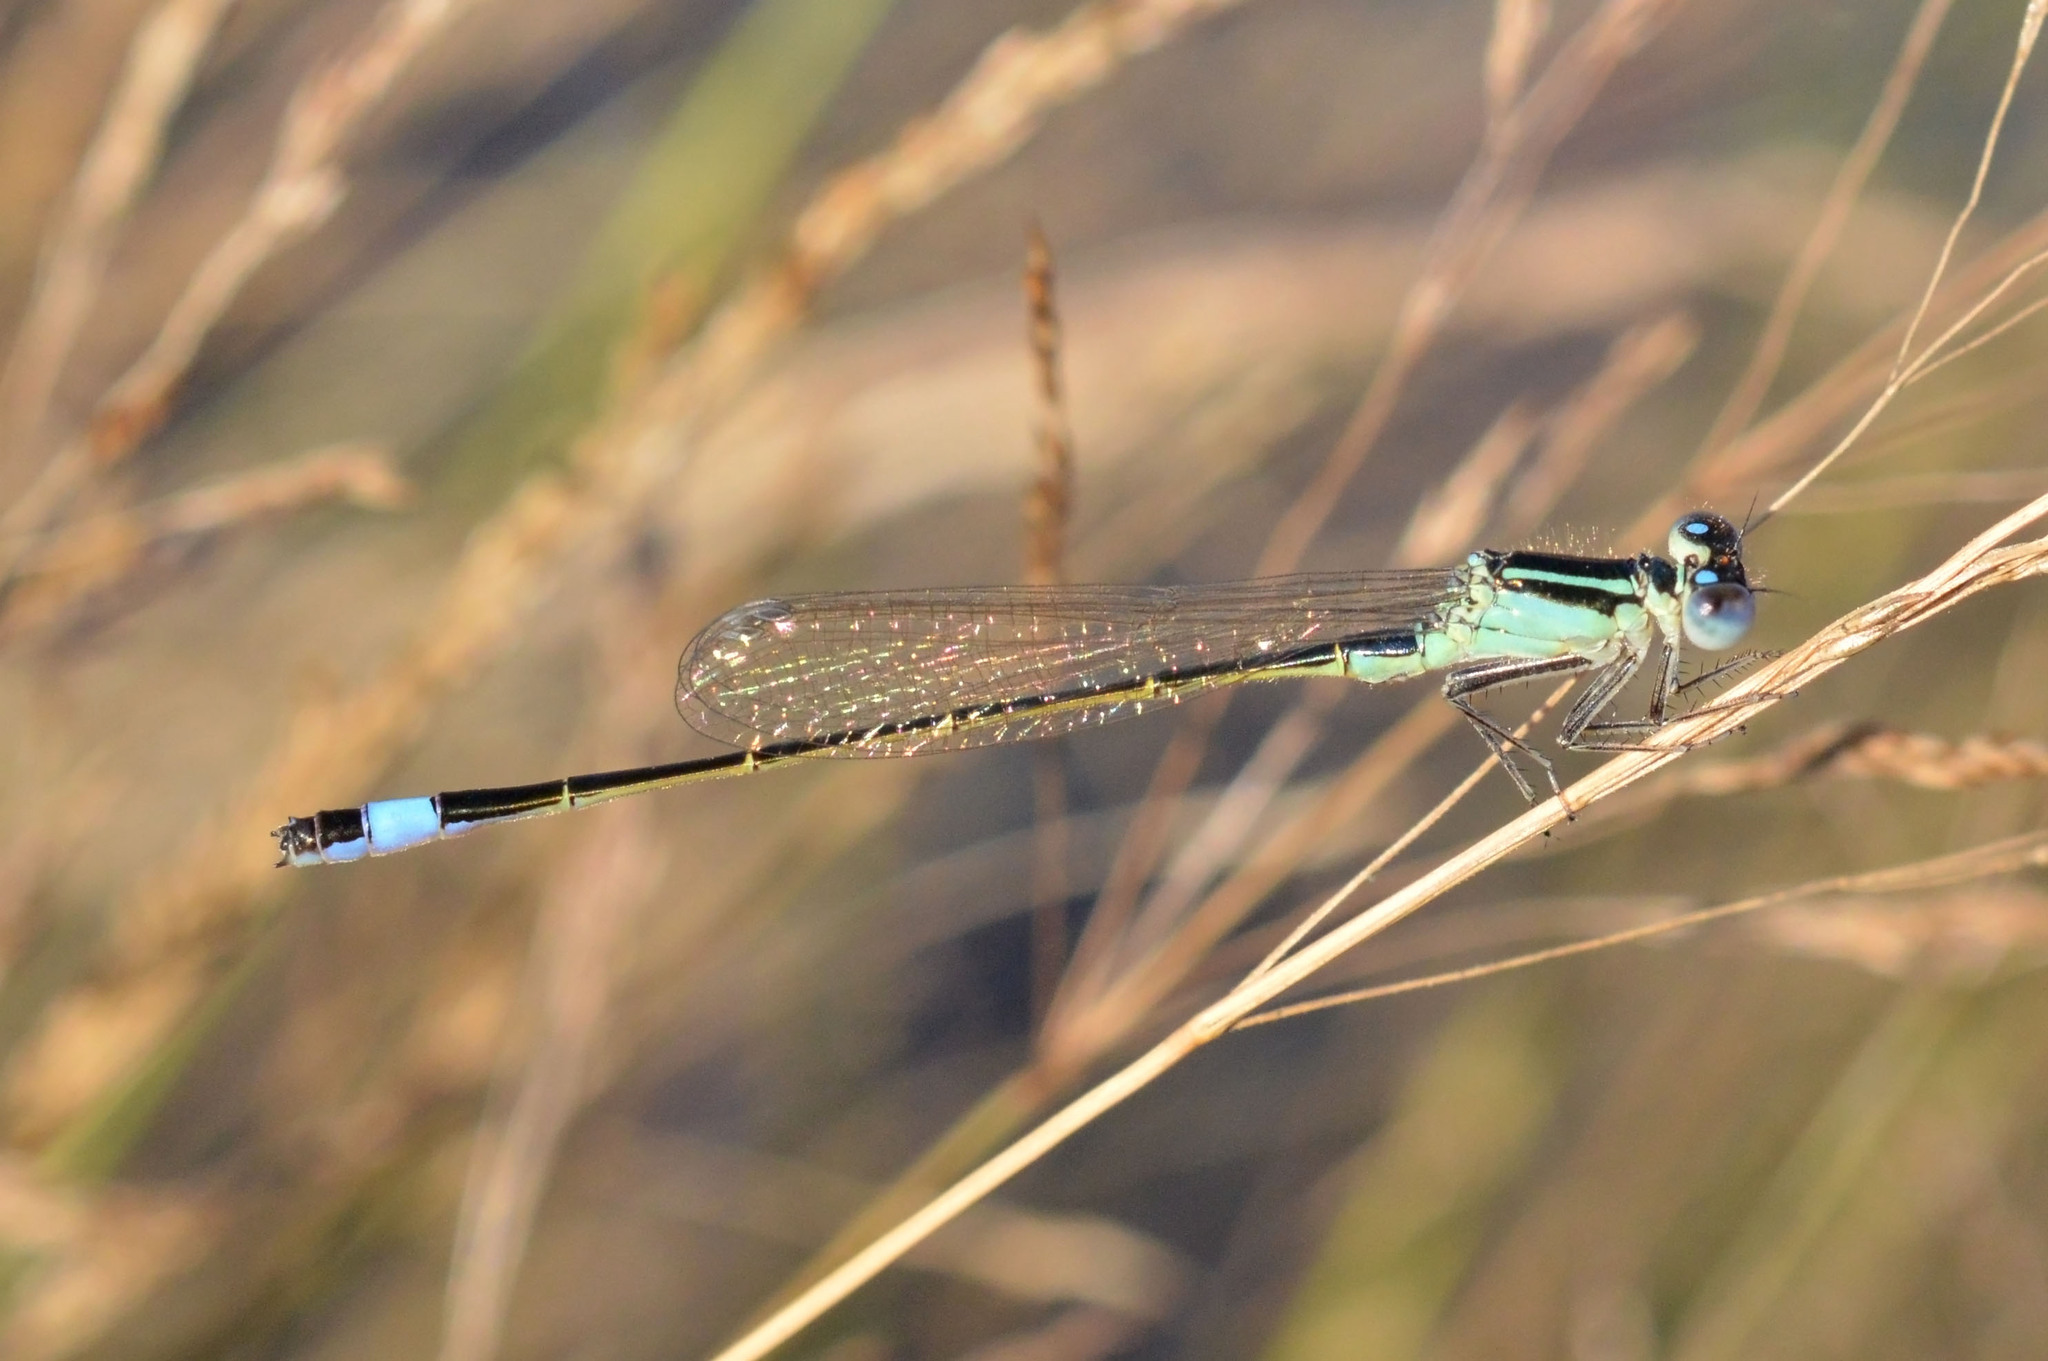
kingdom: Animalia
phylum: Arthropoda
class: Insecta
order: Odonata
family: Coenagrionidae
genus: Ischnura
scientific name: Ischnura elegans
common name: Blue-tailed damselfly
